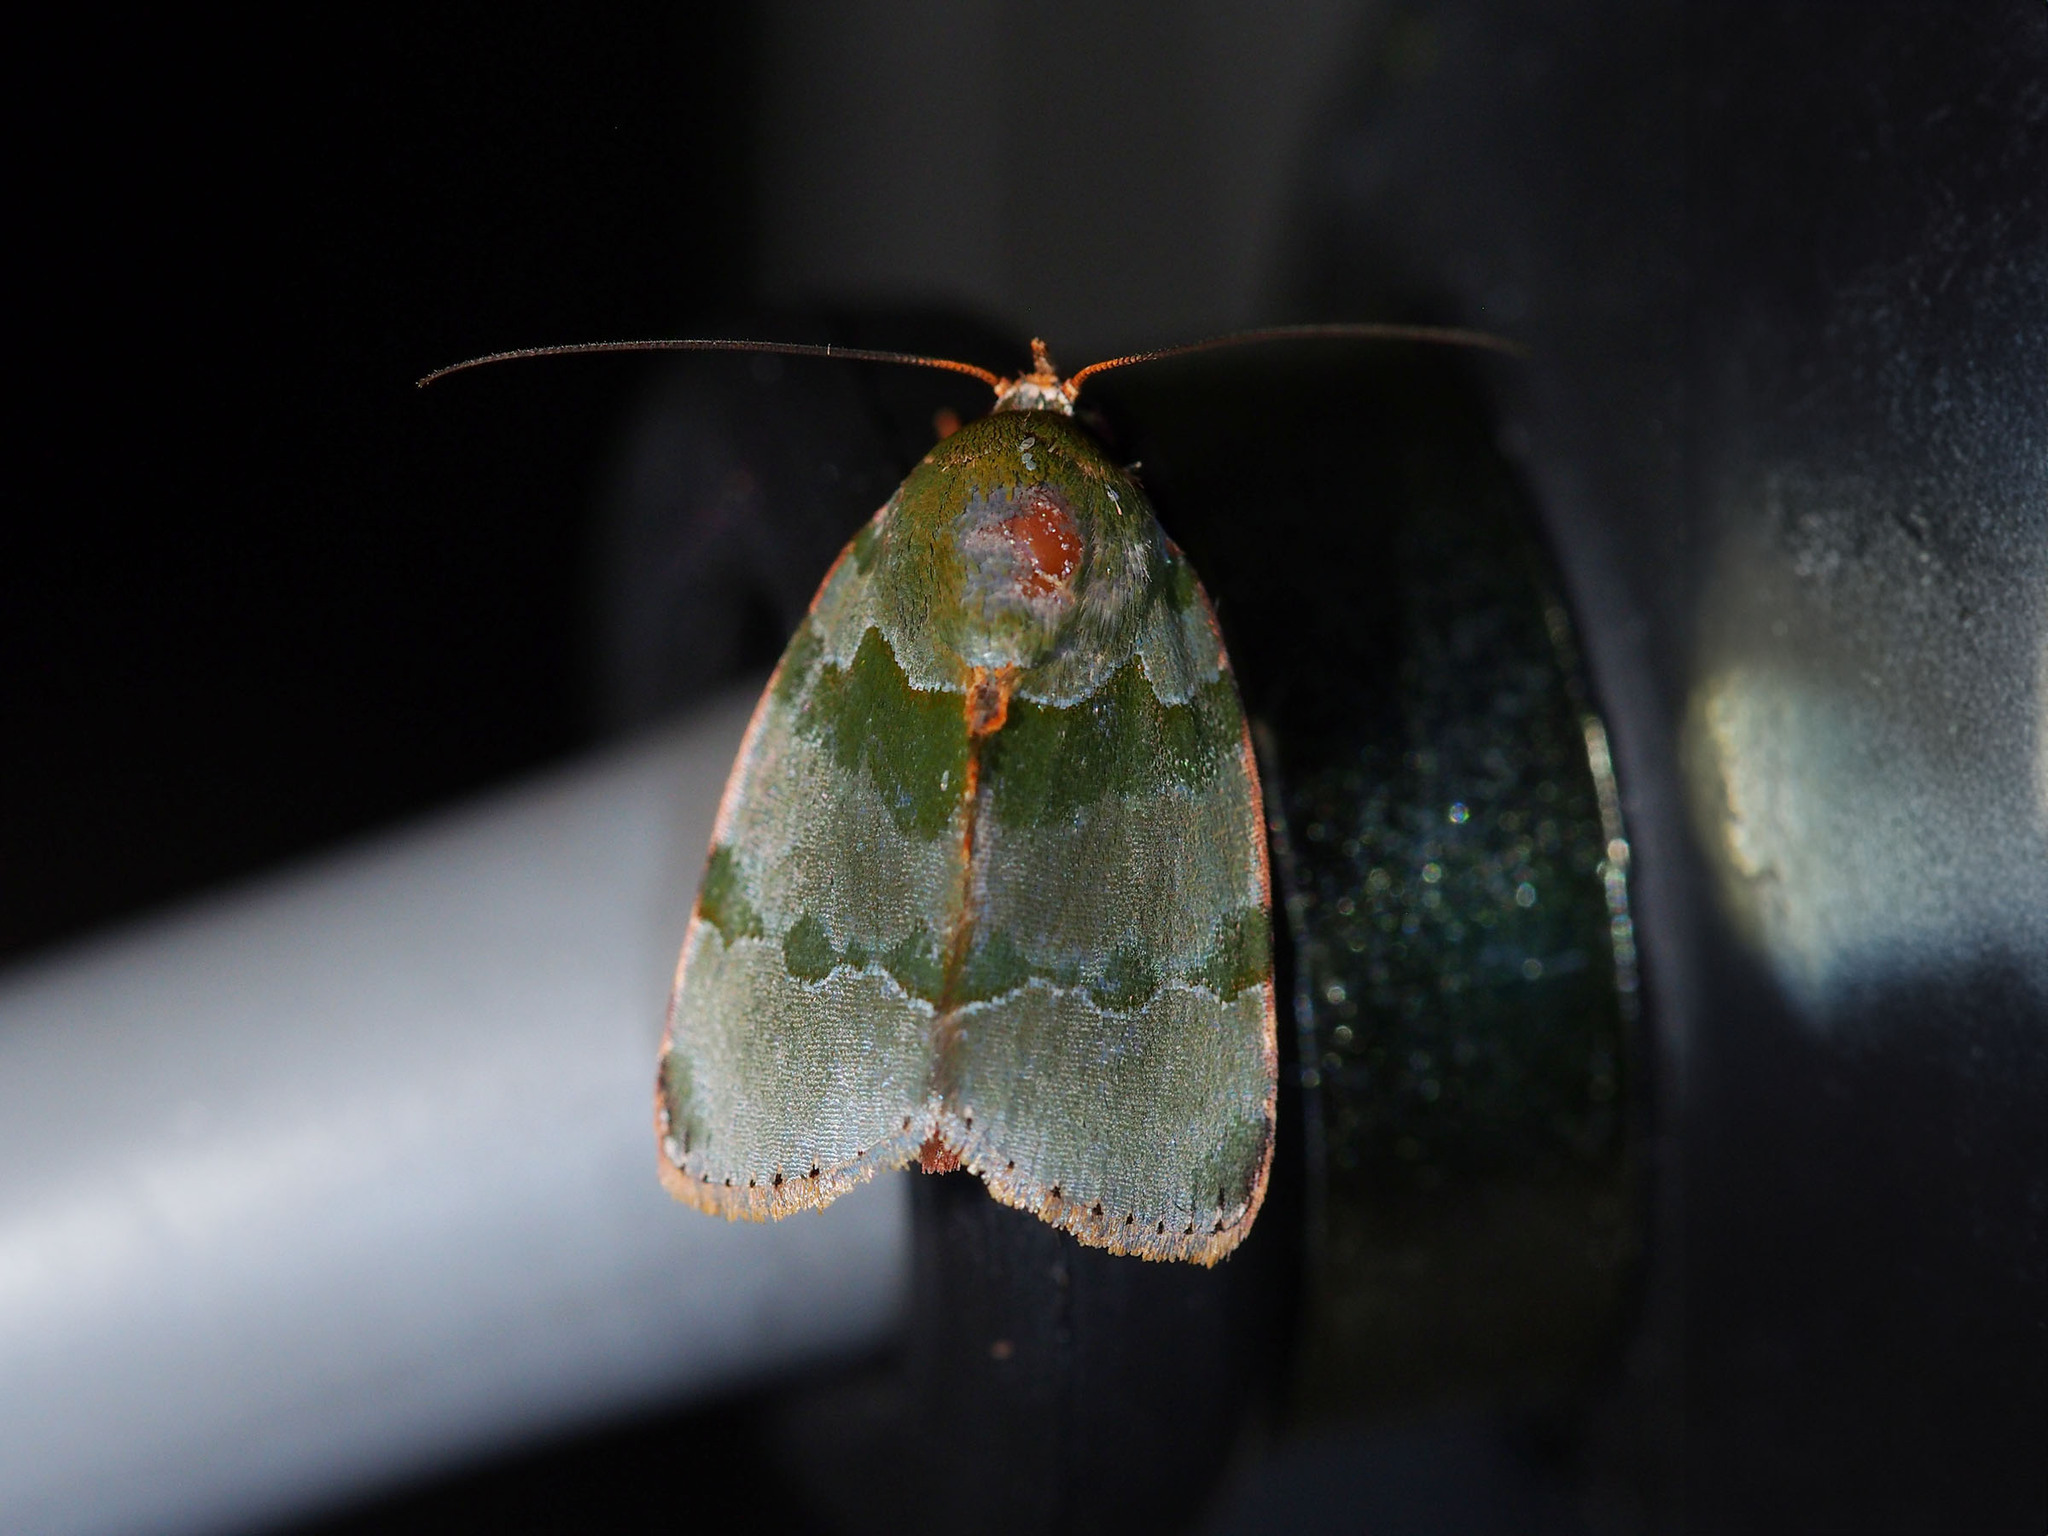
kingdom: Animalia
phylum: Arthropoda
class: Insecta
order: Lepidoptera
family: Nolidae
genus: Lasiolopha
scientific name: Lasiolopha saturata
